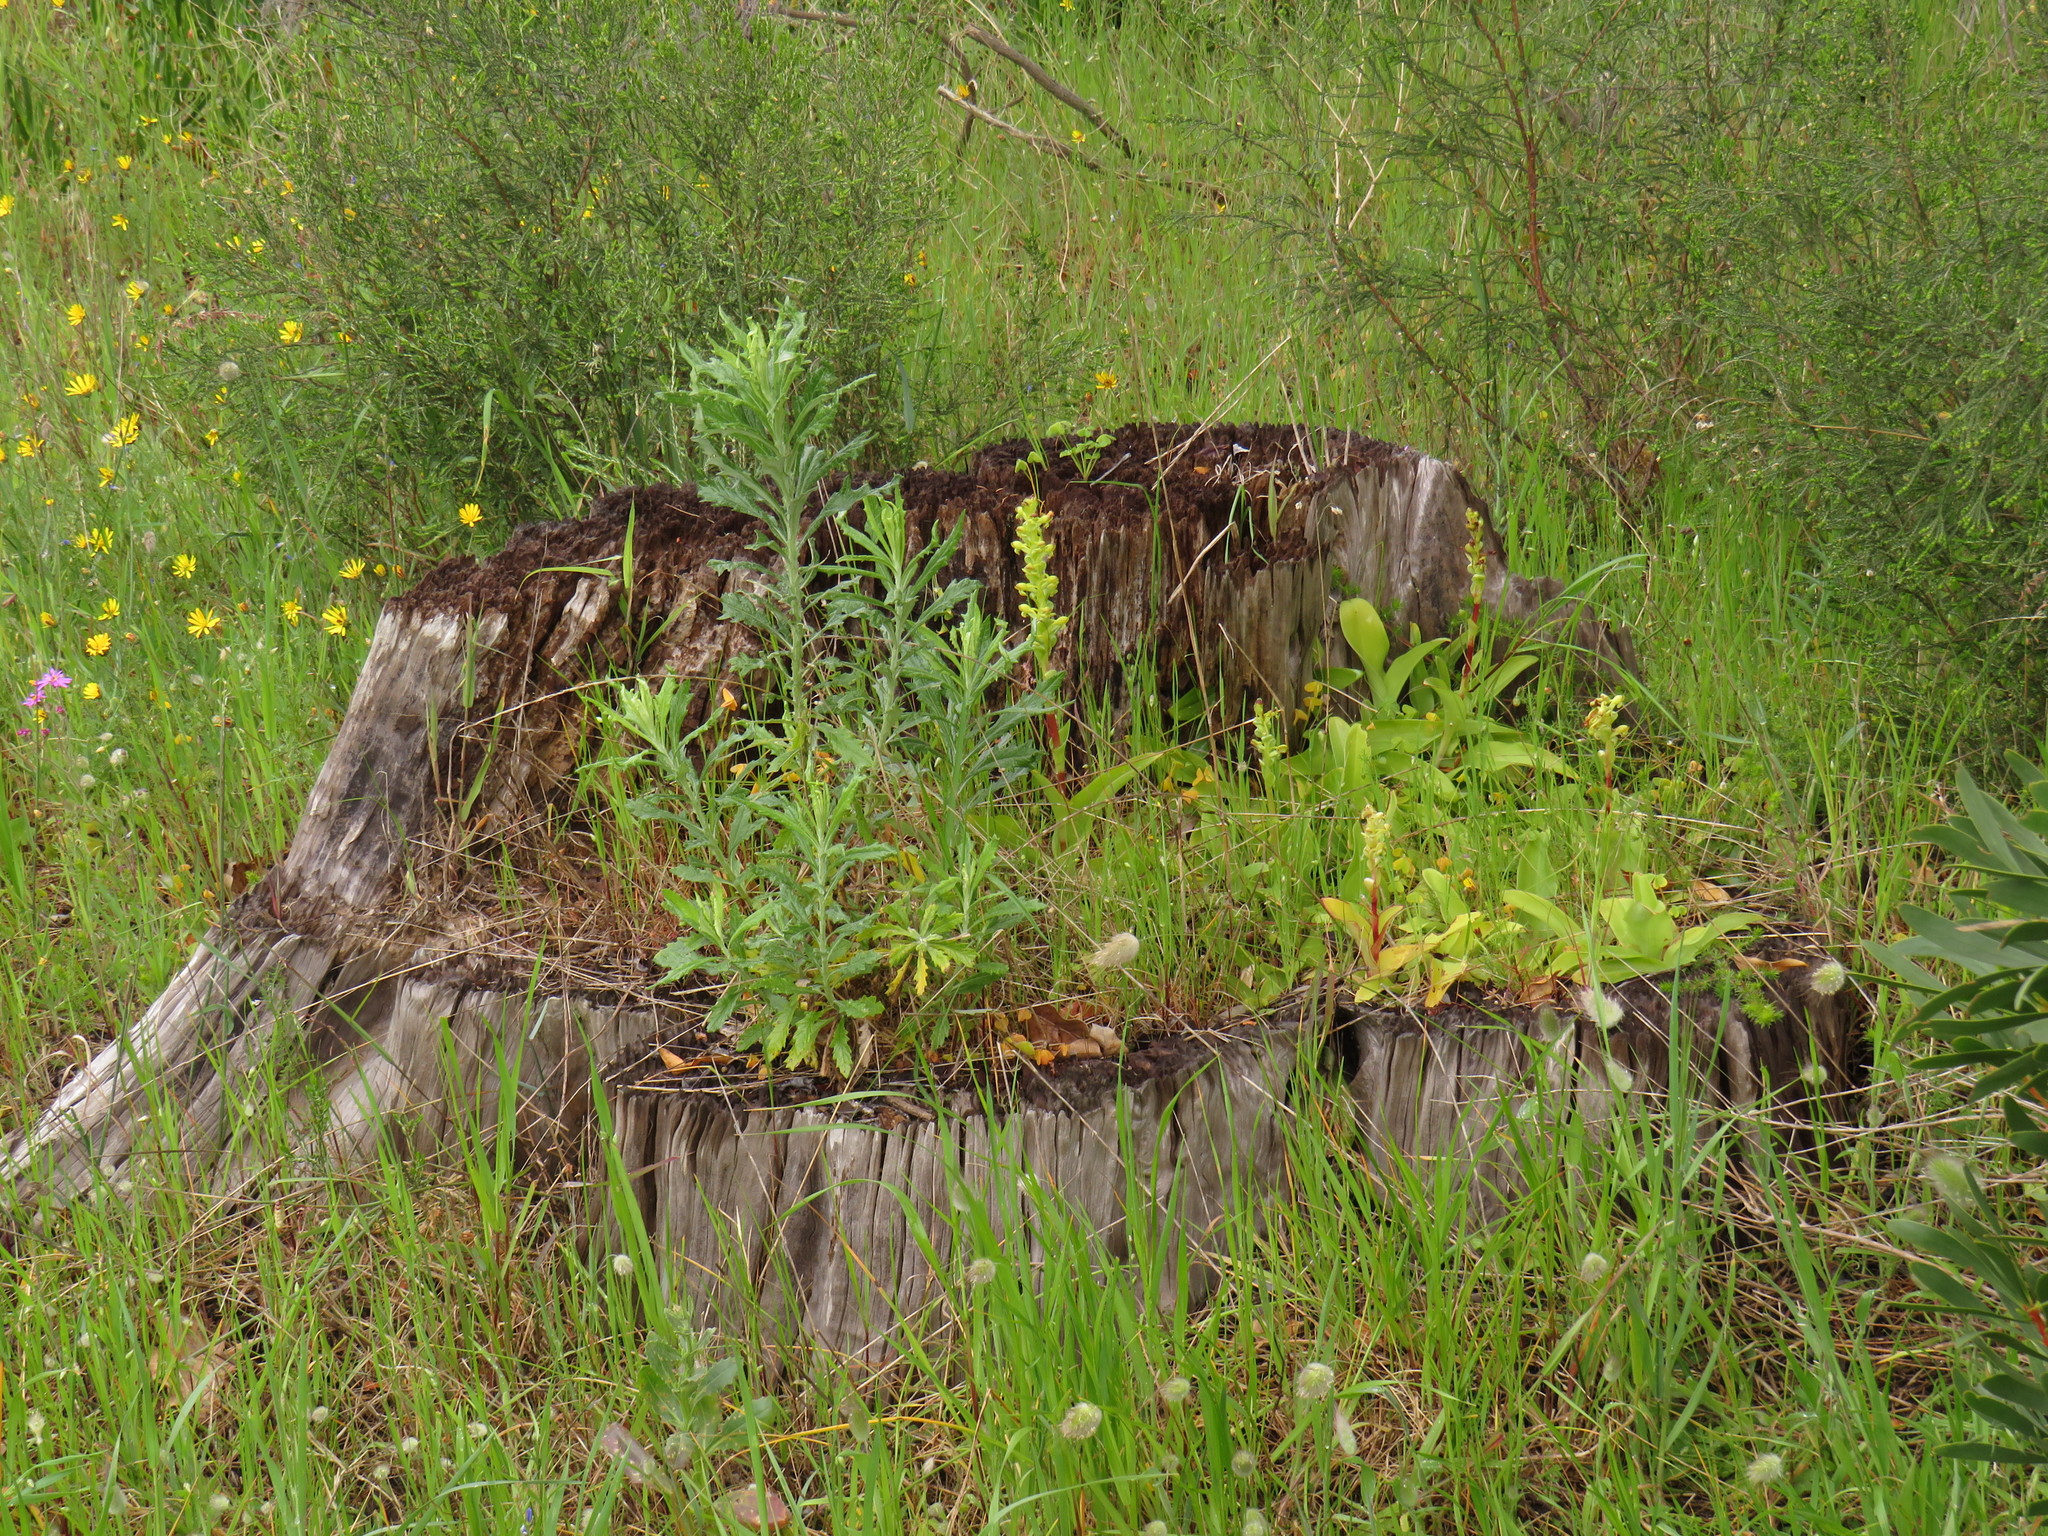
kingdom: Plantae
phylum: Tracheophyta
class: Liliopsida
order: Asparagales
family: Orchidaceae
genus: Satyrium
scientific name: Satyrium odorum
